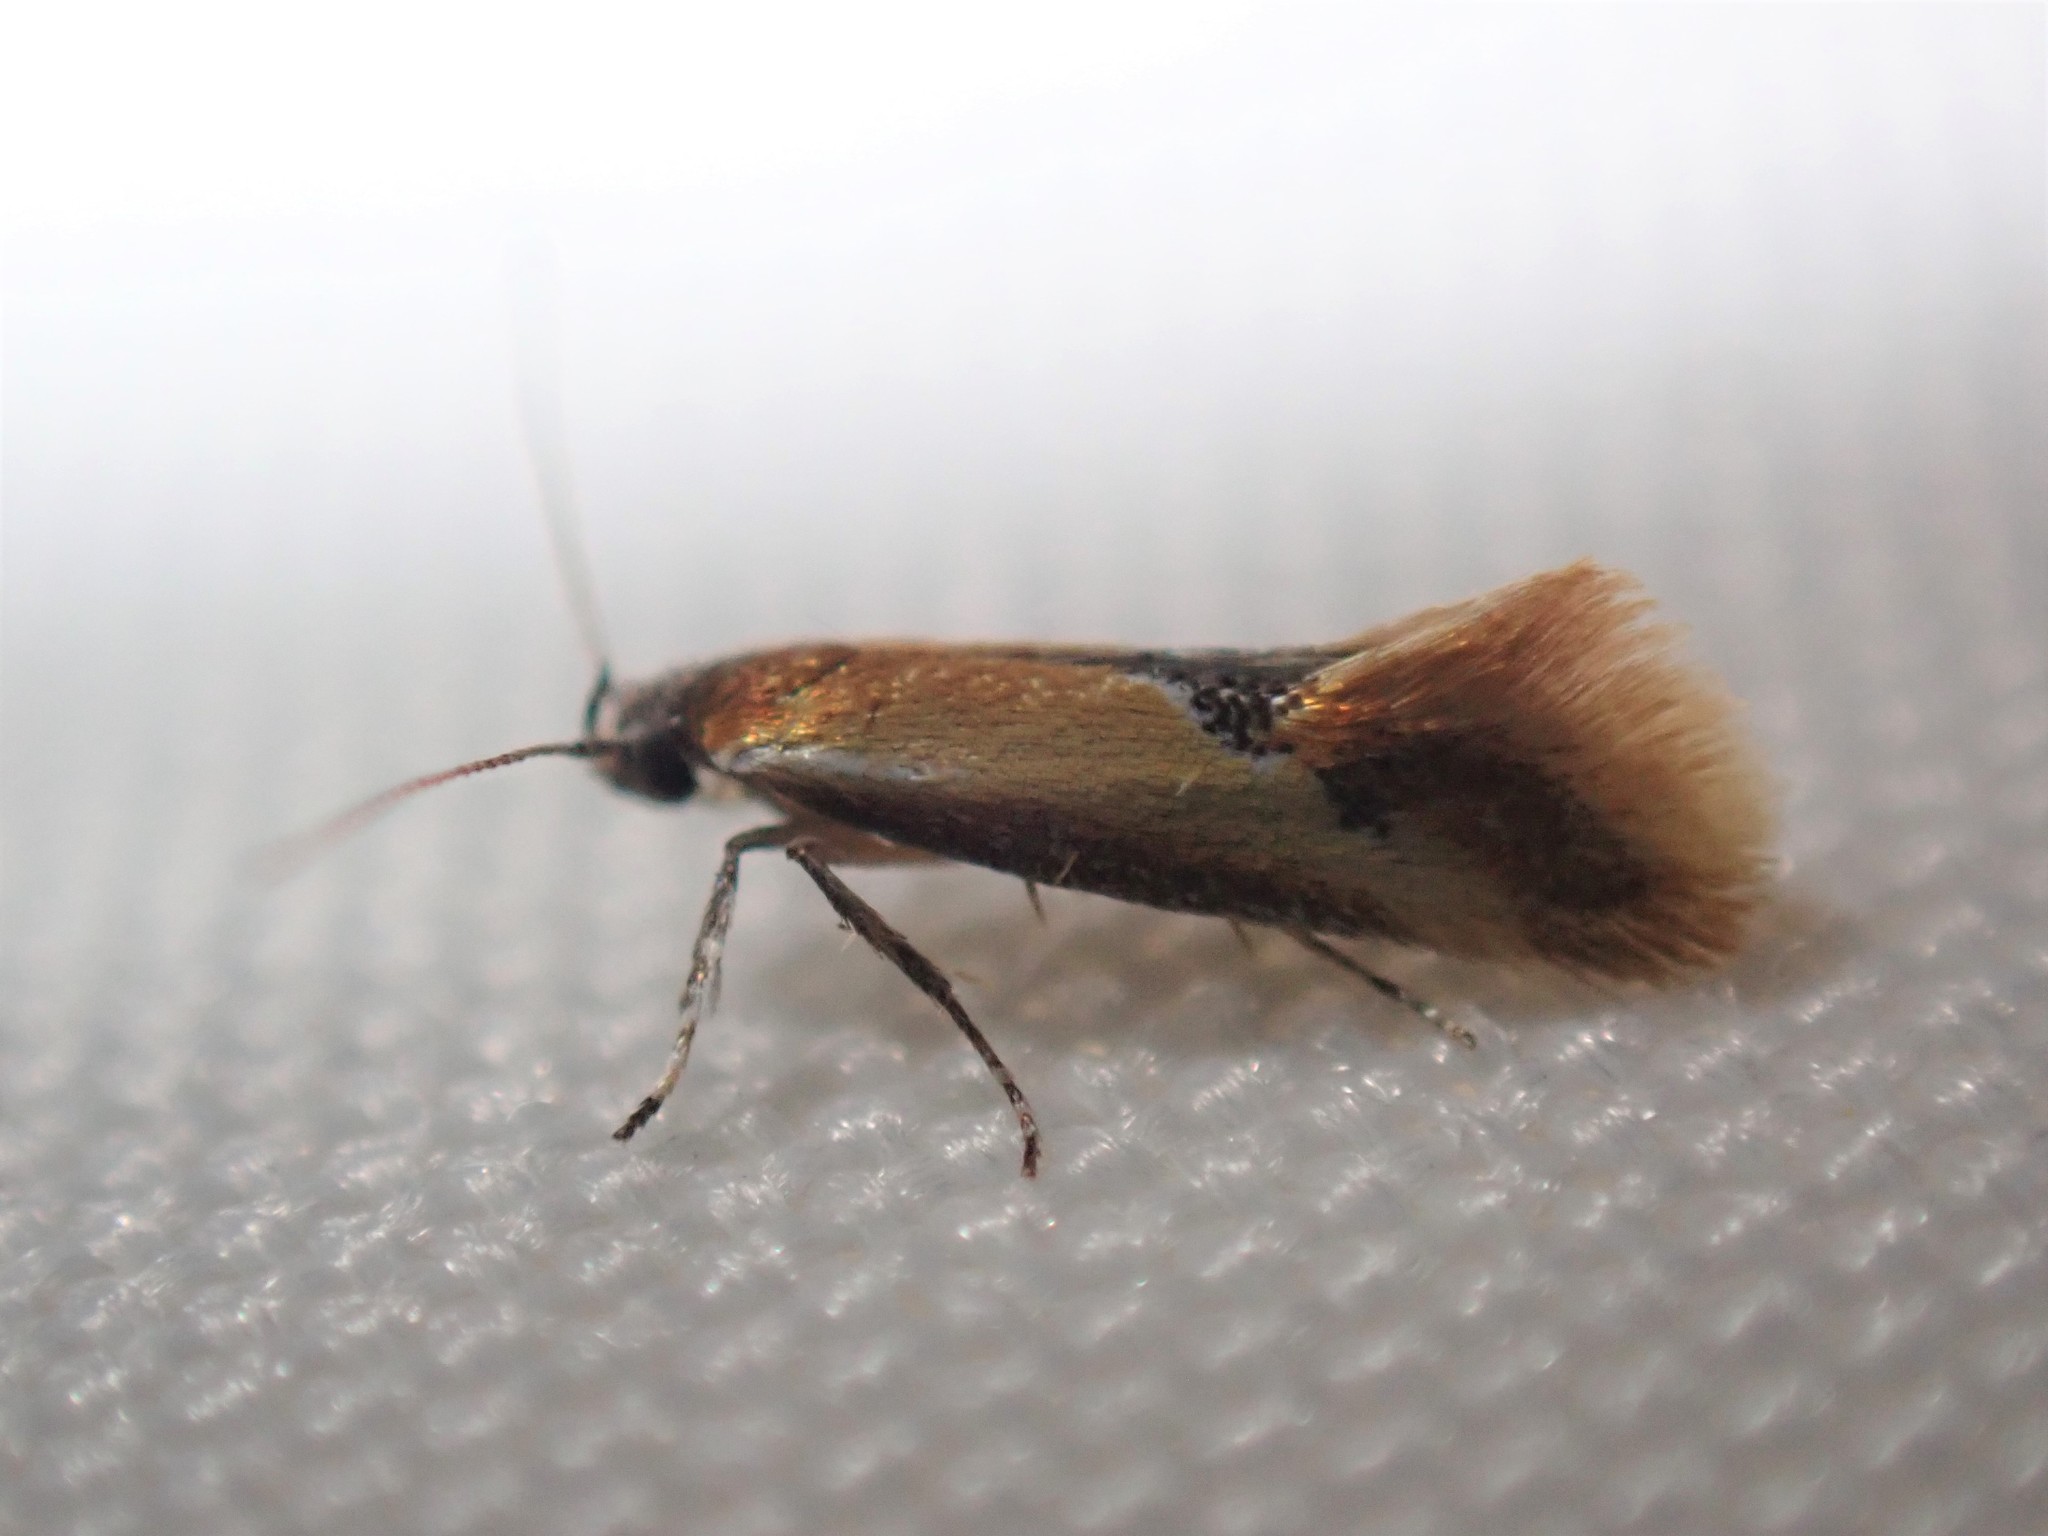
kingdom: Animalia
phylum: Arthropoda
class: Insecta
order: Lepidoptera
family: Oecophoridae
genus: Batia
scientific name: Batia lunaris
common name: Moth
